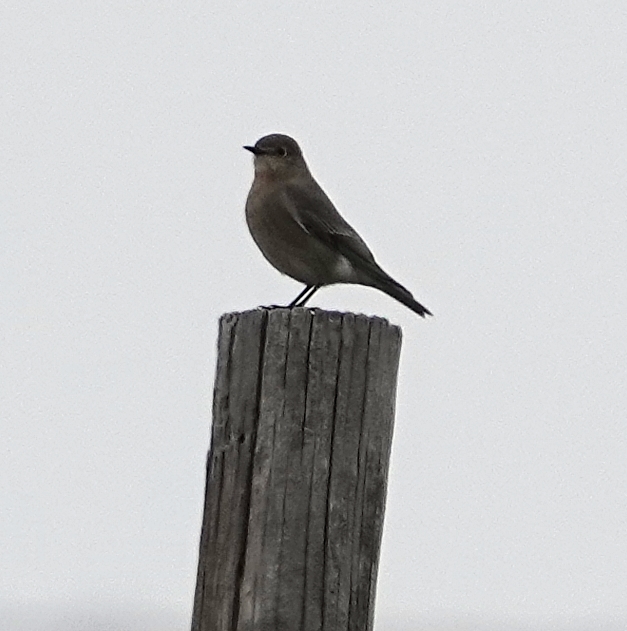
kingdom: Animalia
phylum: Chordata
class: Aves
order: Passeriformes
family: Turdidae
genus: Sialia
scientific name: Sialia currucoides
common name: Mountain bluebird
